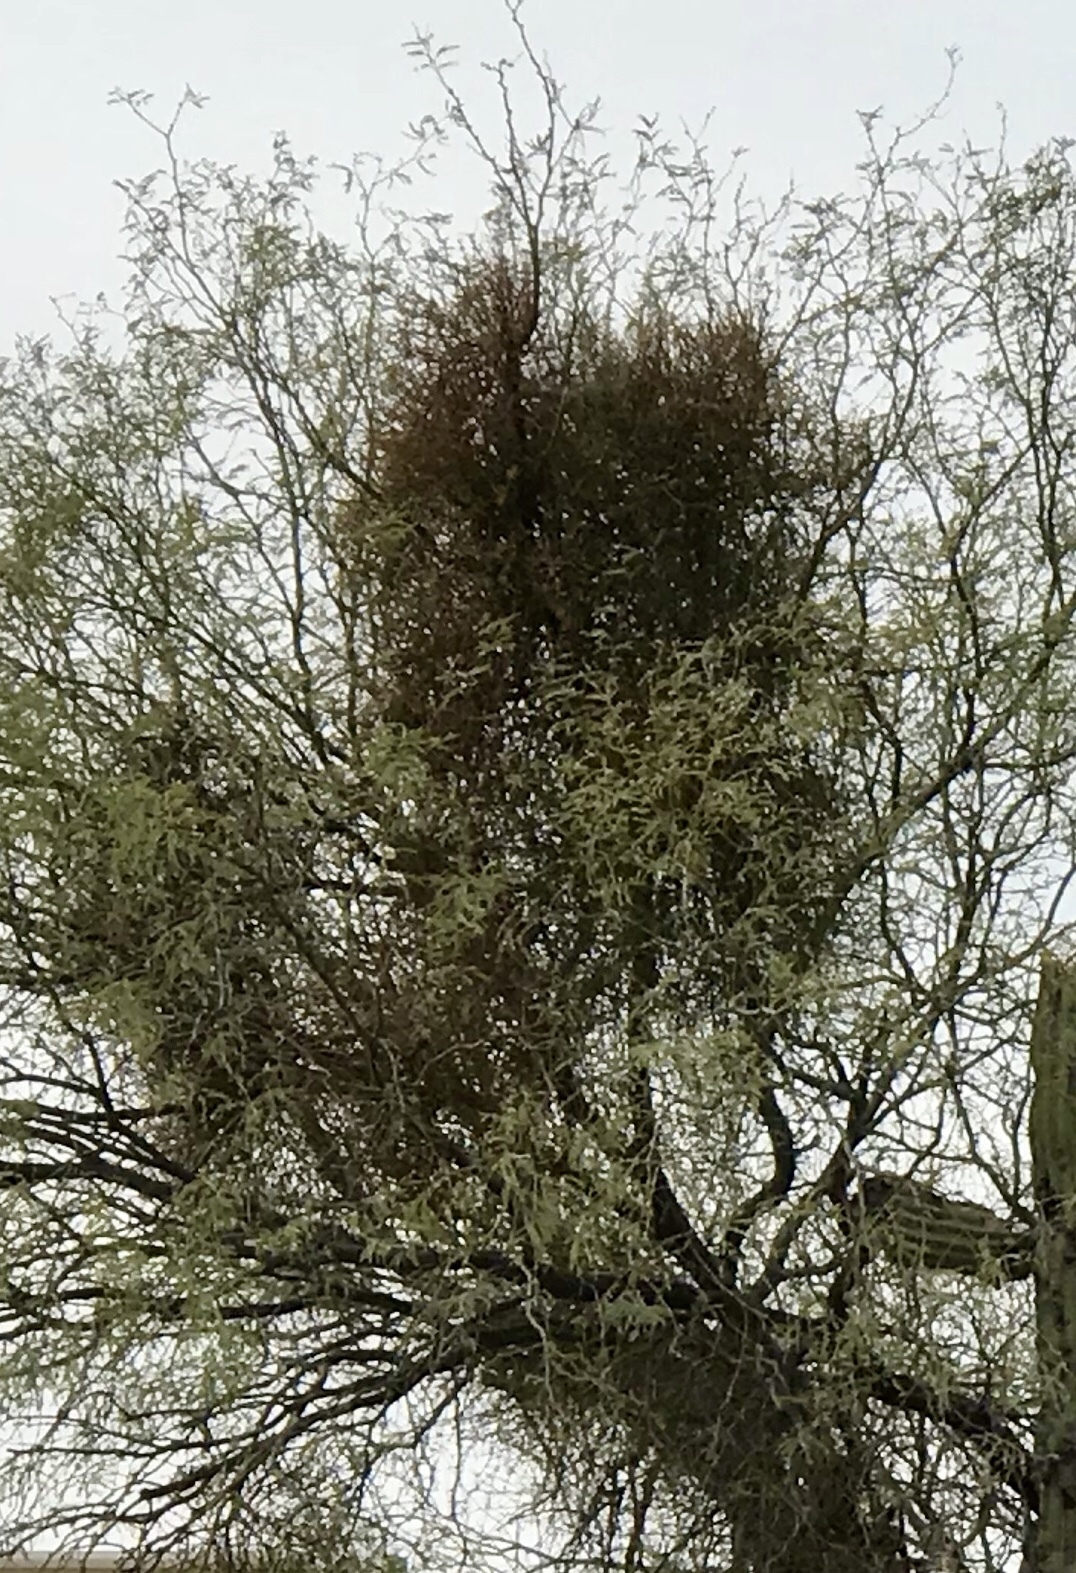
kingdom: Plantae
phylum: Tracheophyta
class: Magnoliopsida
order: Santalales
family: Viscaceae
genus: Phoradendron
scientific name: Phoradendron californicum
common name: Acacia mistletoe
